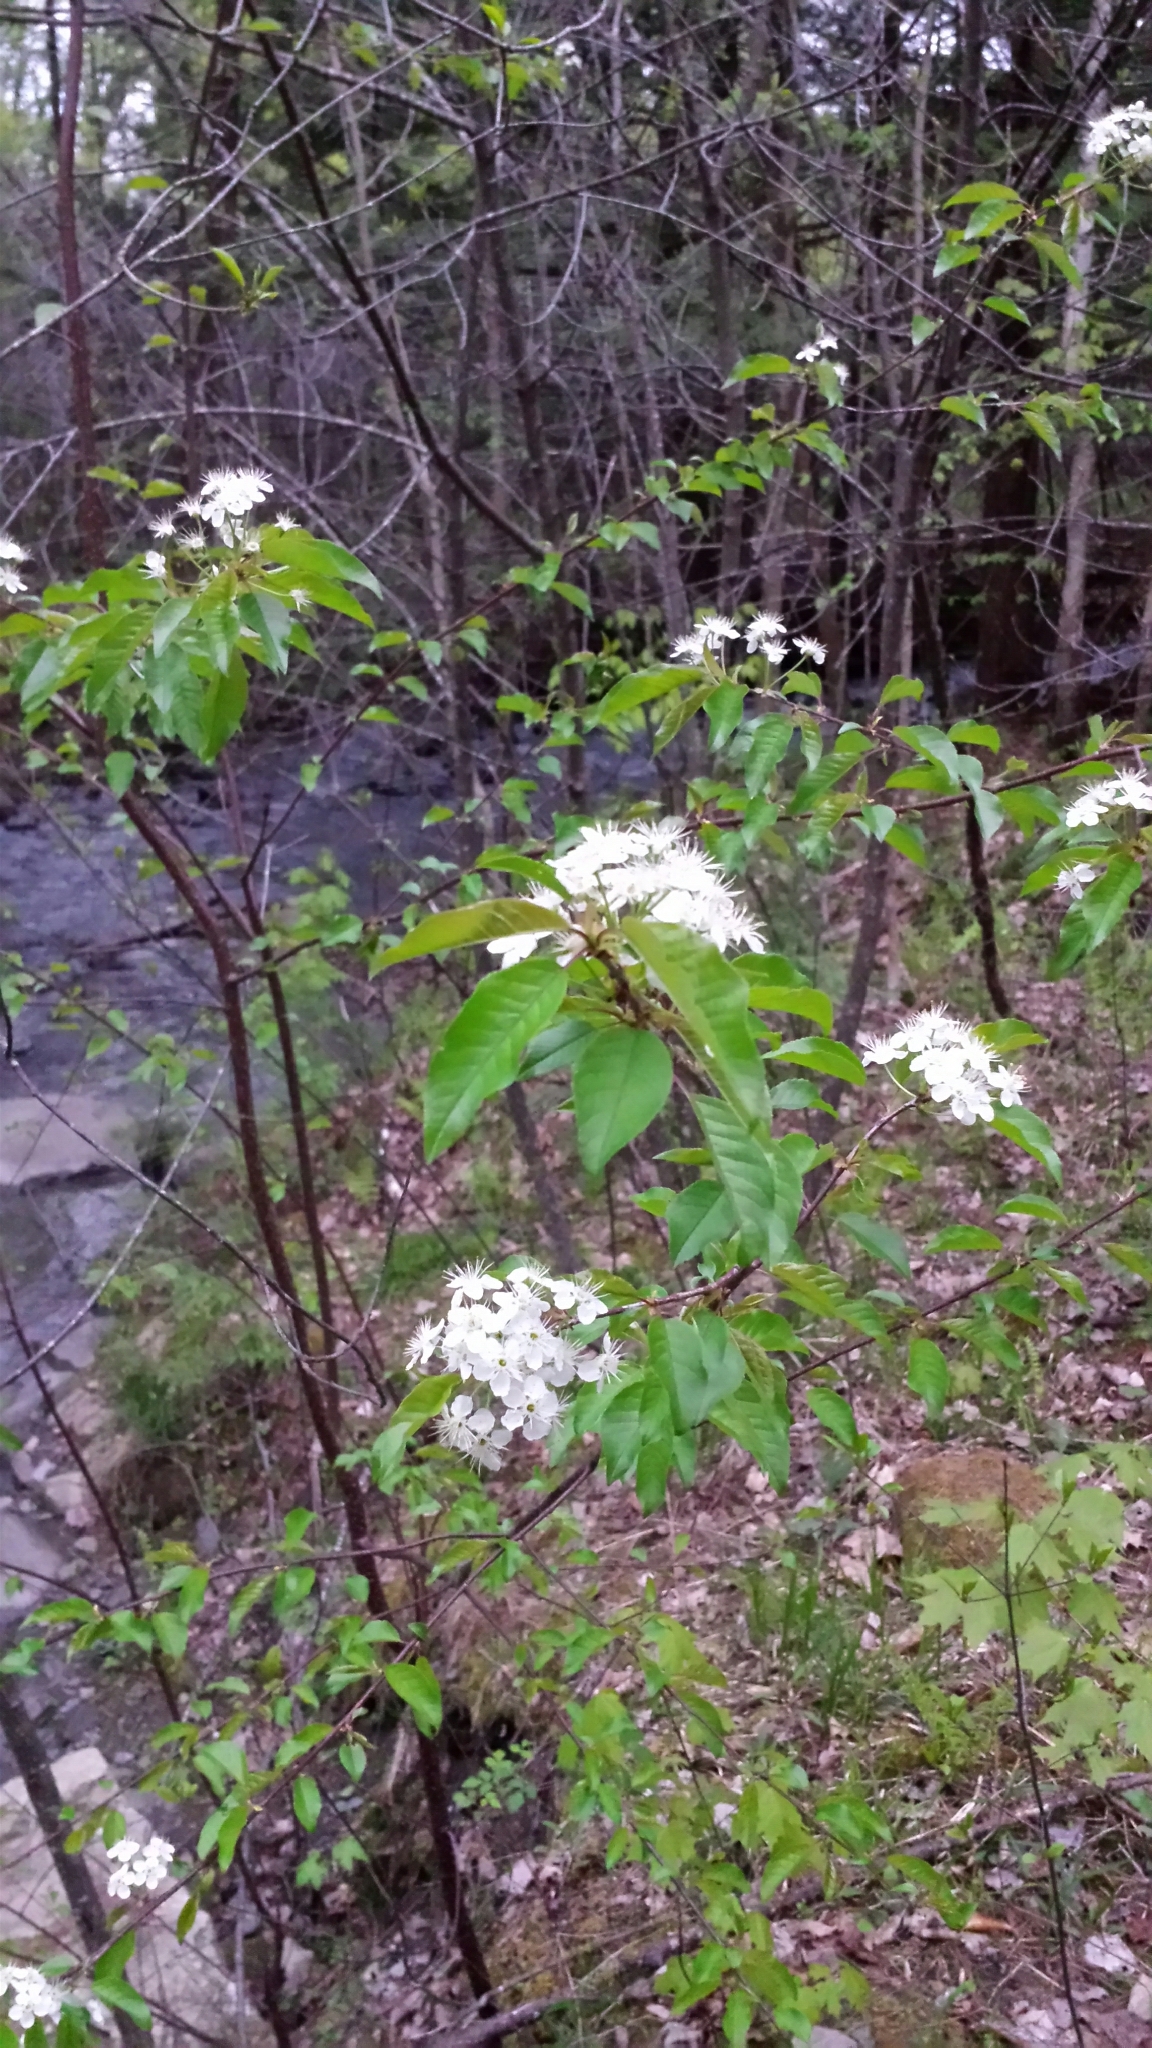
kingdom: Plantae
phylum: Tracheophyta
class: Magnoliopsida
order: Rosales
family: Rosaceae
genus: Prunus
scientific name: Prunus pensylvanica
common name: Pin cherry
